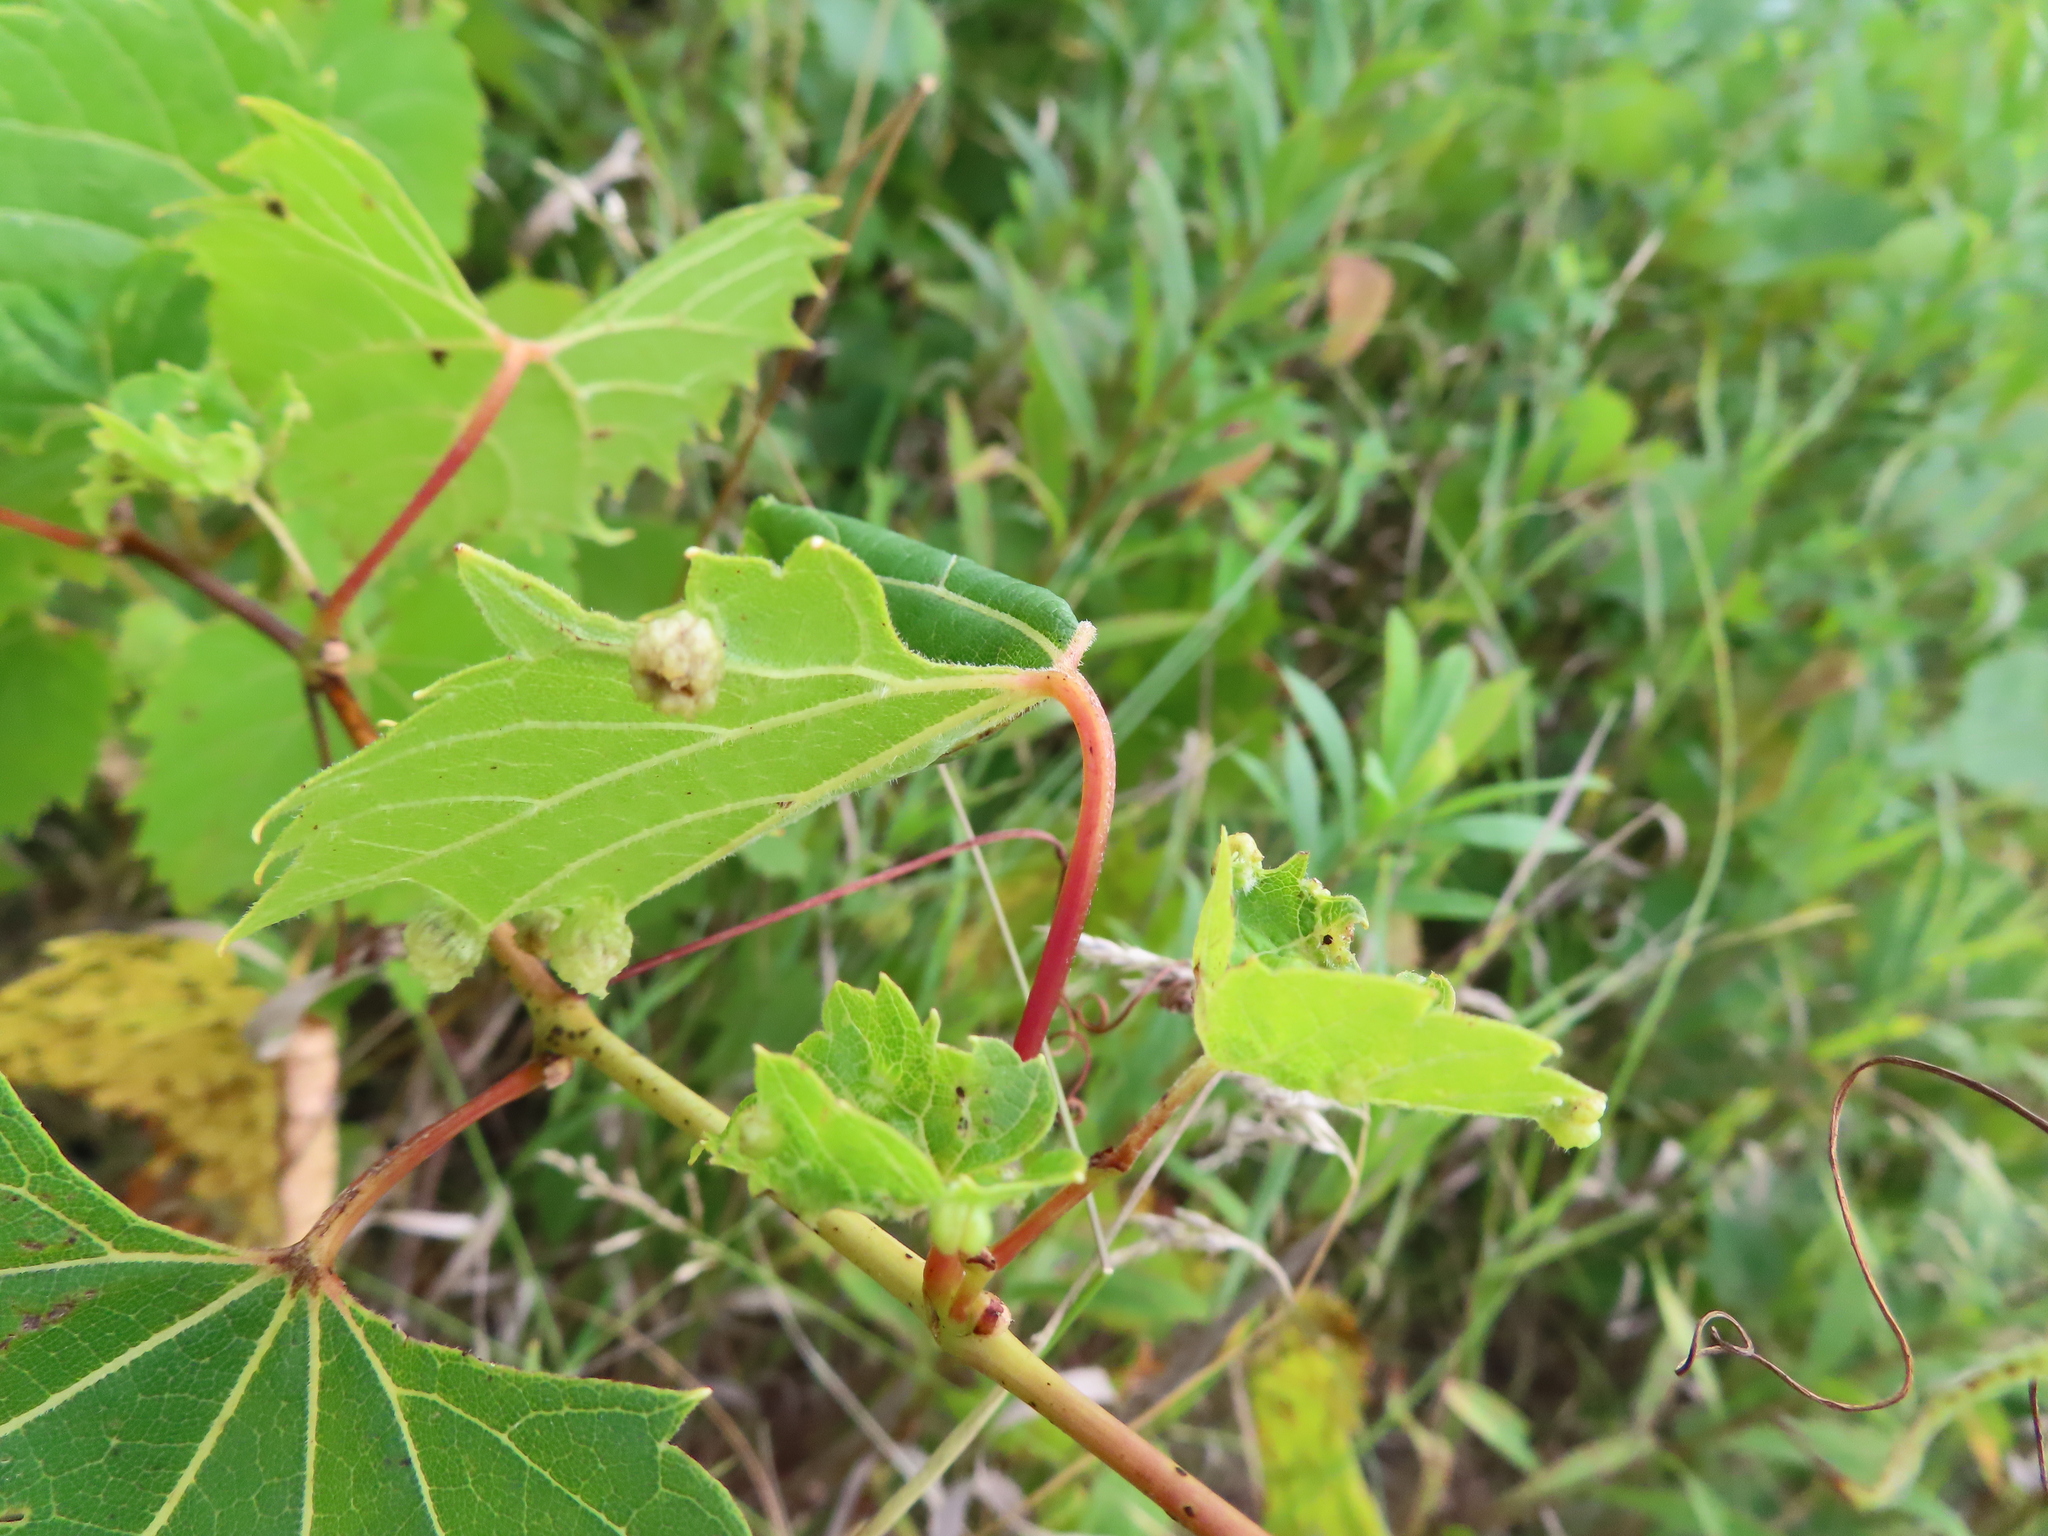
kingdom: Animalia
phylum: Arthropoda
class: Insecta
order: Hemiptera
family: Phylloxeridae
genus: Daktulosphaira
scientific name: Daktulosphaira vitifoliae
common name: Grape phylloxera
